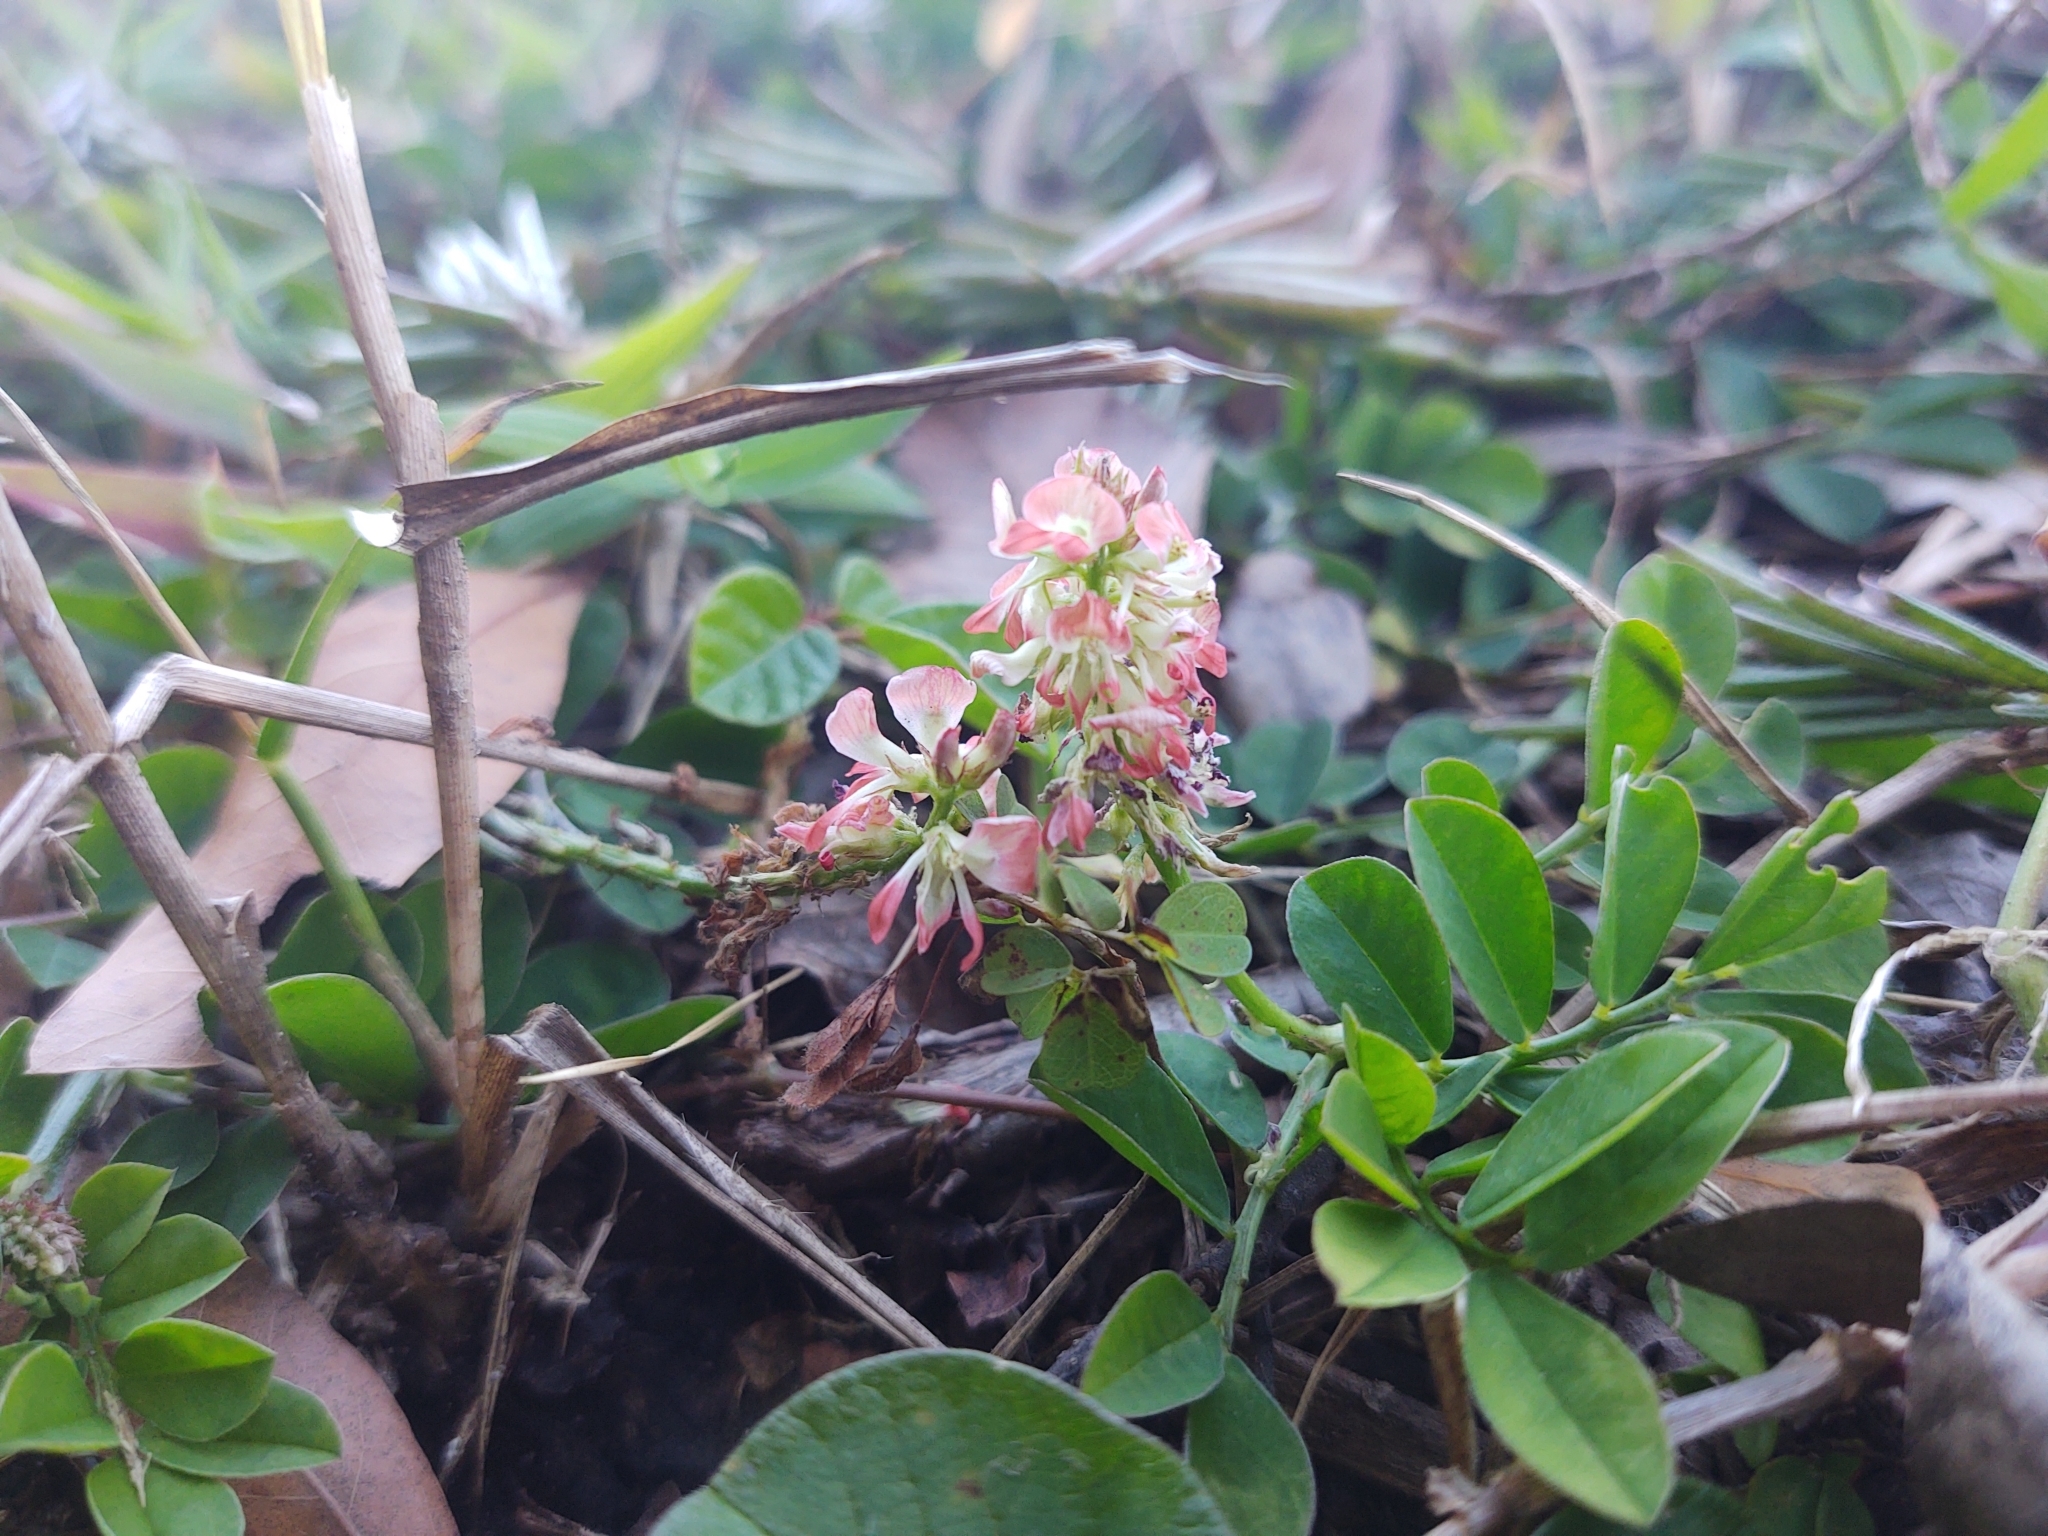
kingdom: Plantae
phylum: Tracheophyta
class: Magnoliopsida
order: Fabales
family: Fabaceae
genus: Indigofera
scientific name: Indigofera spicata
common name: Creeping indigo
